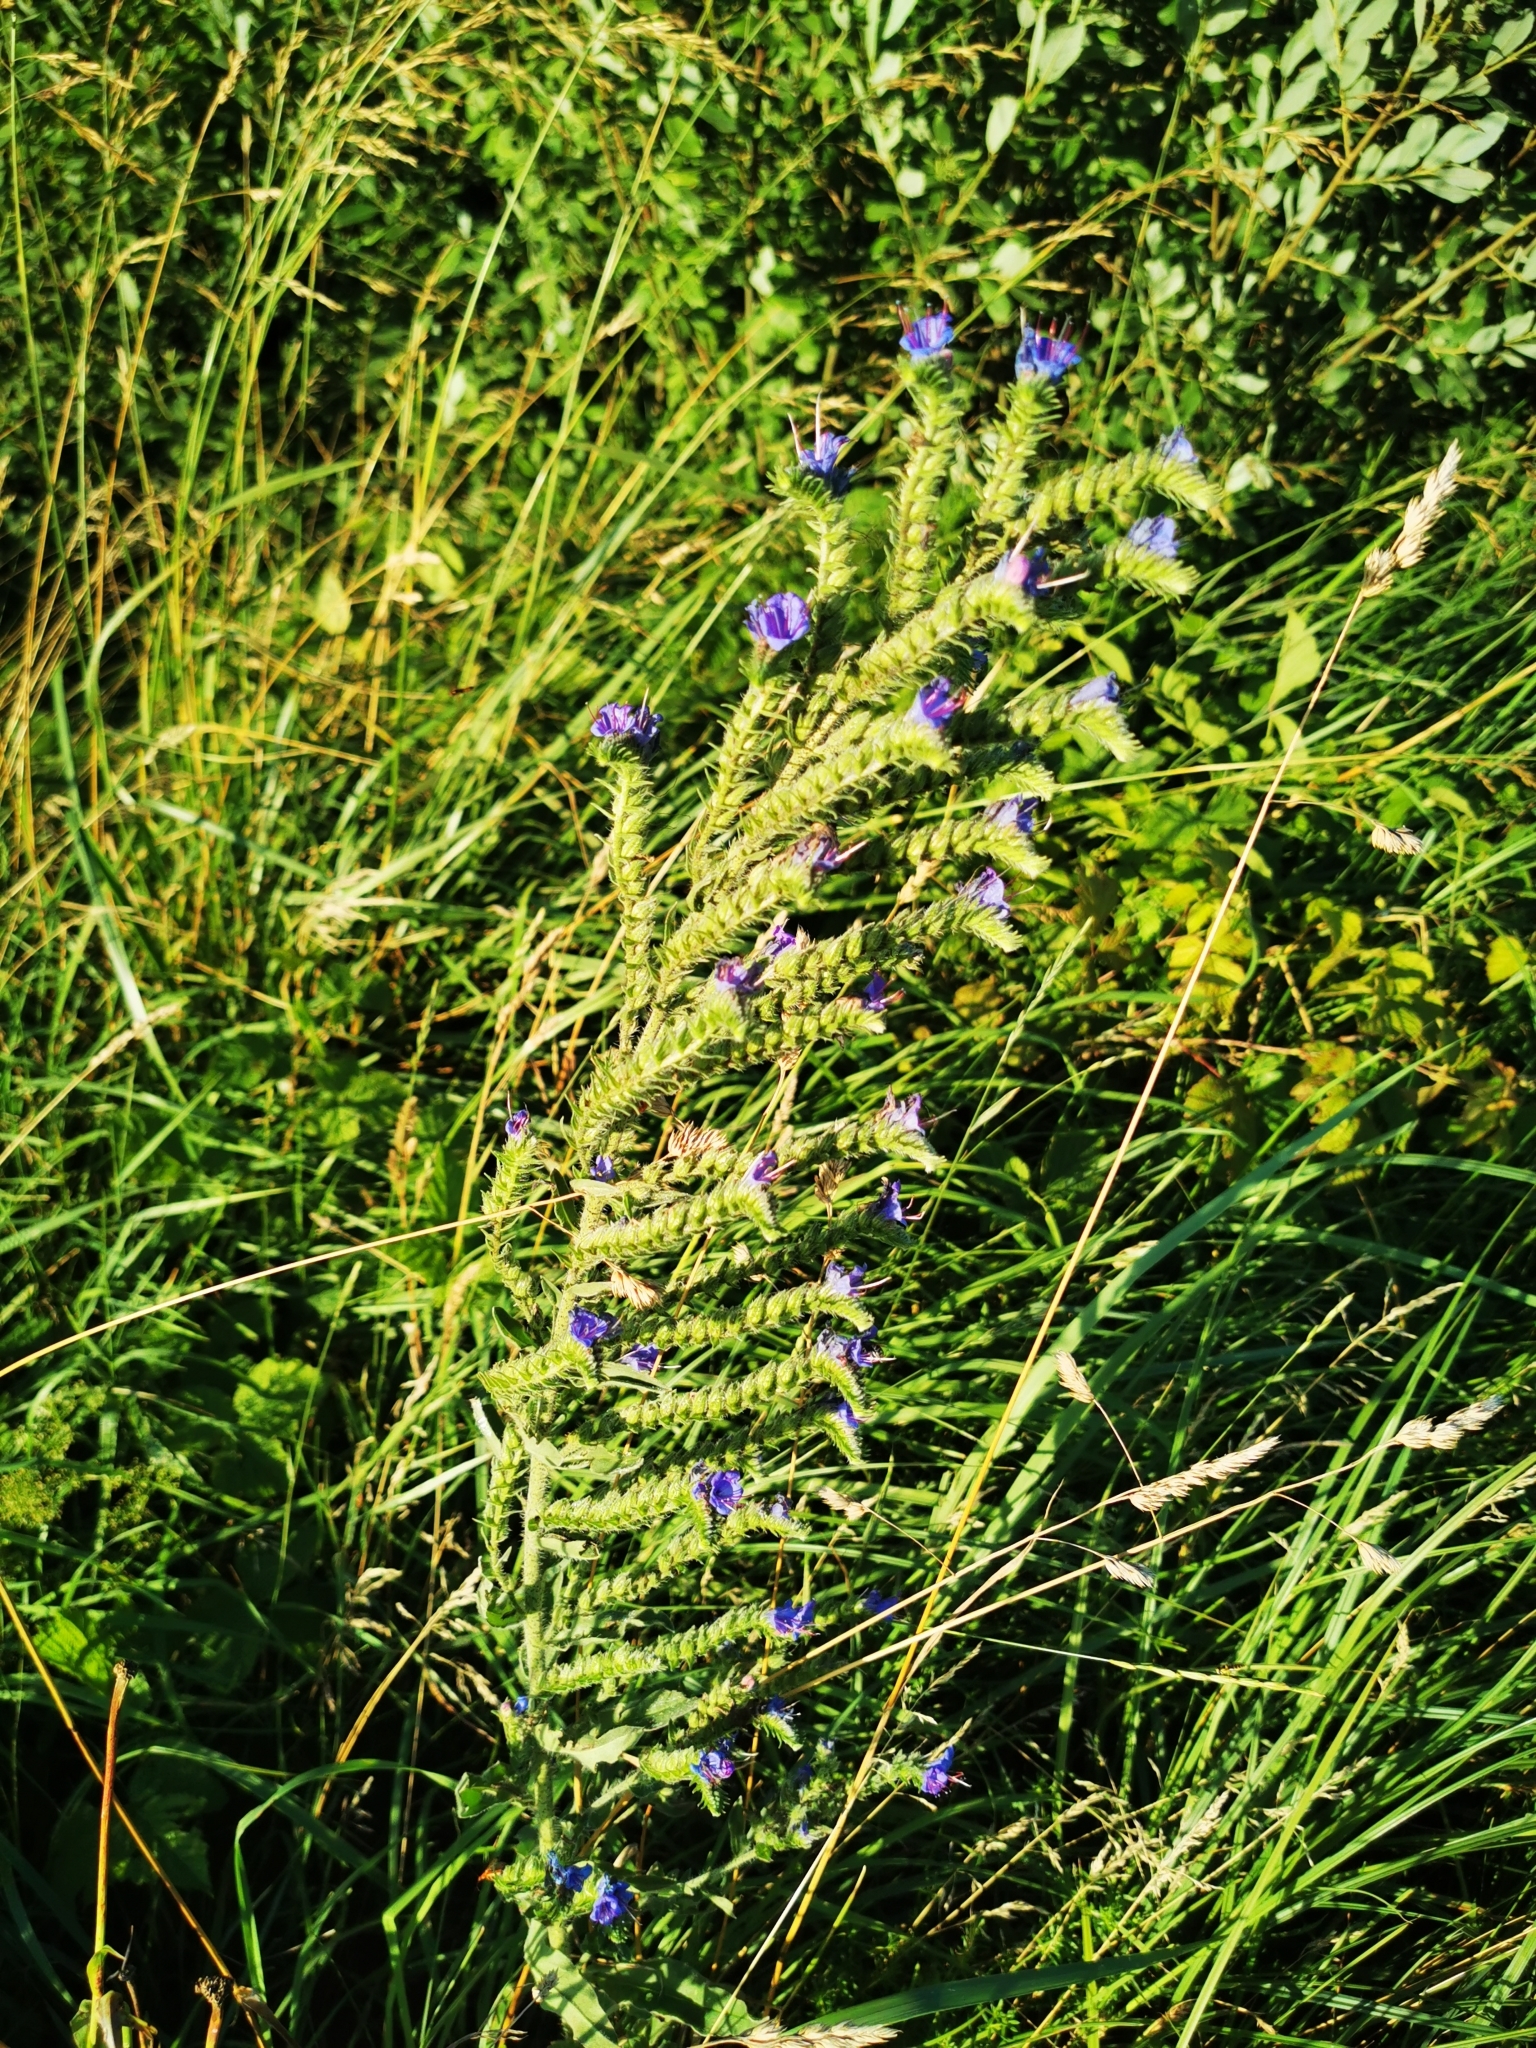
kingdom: Plantae
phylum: Tracheophyta
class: Magnoliopsida
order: Boraginales
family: Boraginaceae
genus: Echium
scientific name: Echium vulgare
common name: Common viper's bugloss
